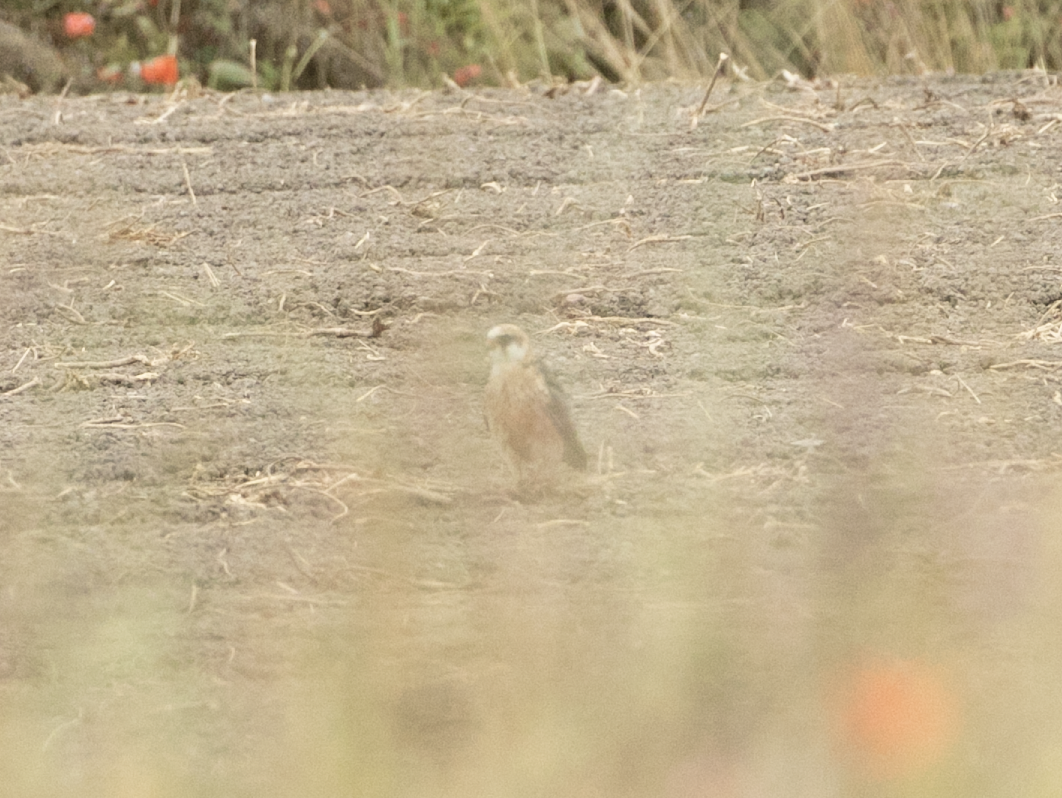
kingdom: Animalia
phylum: Chordata
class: Aves
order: Falconiformes
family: Falconidae
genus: Falco
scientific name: Falco vespertinus
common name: Red-footed falcon
